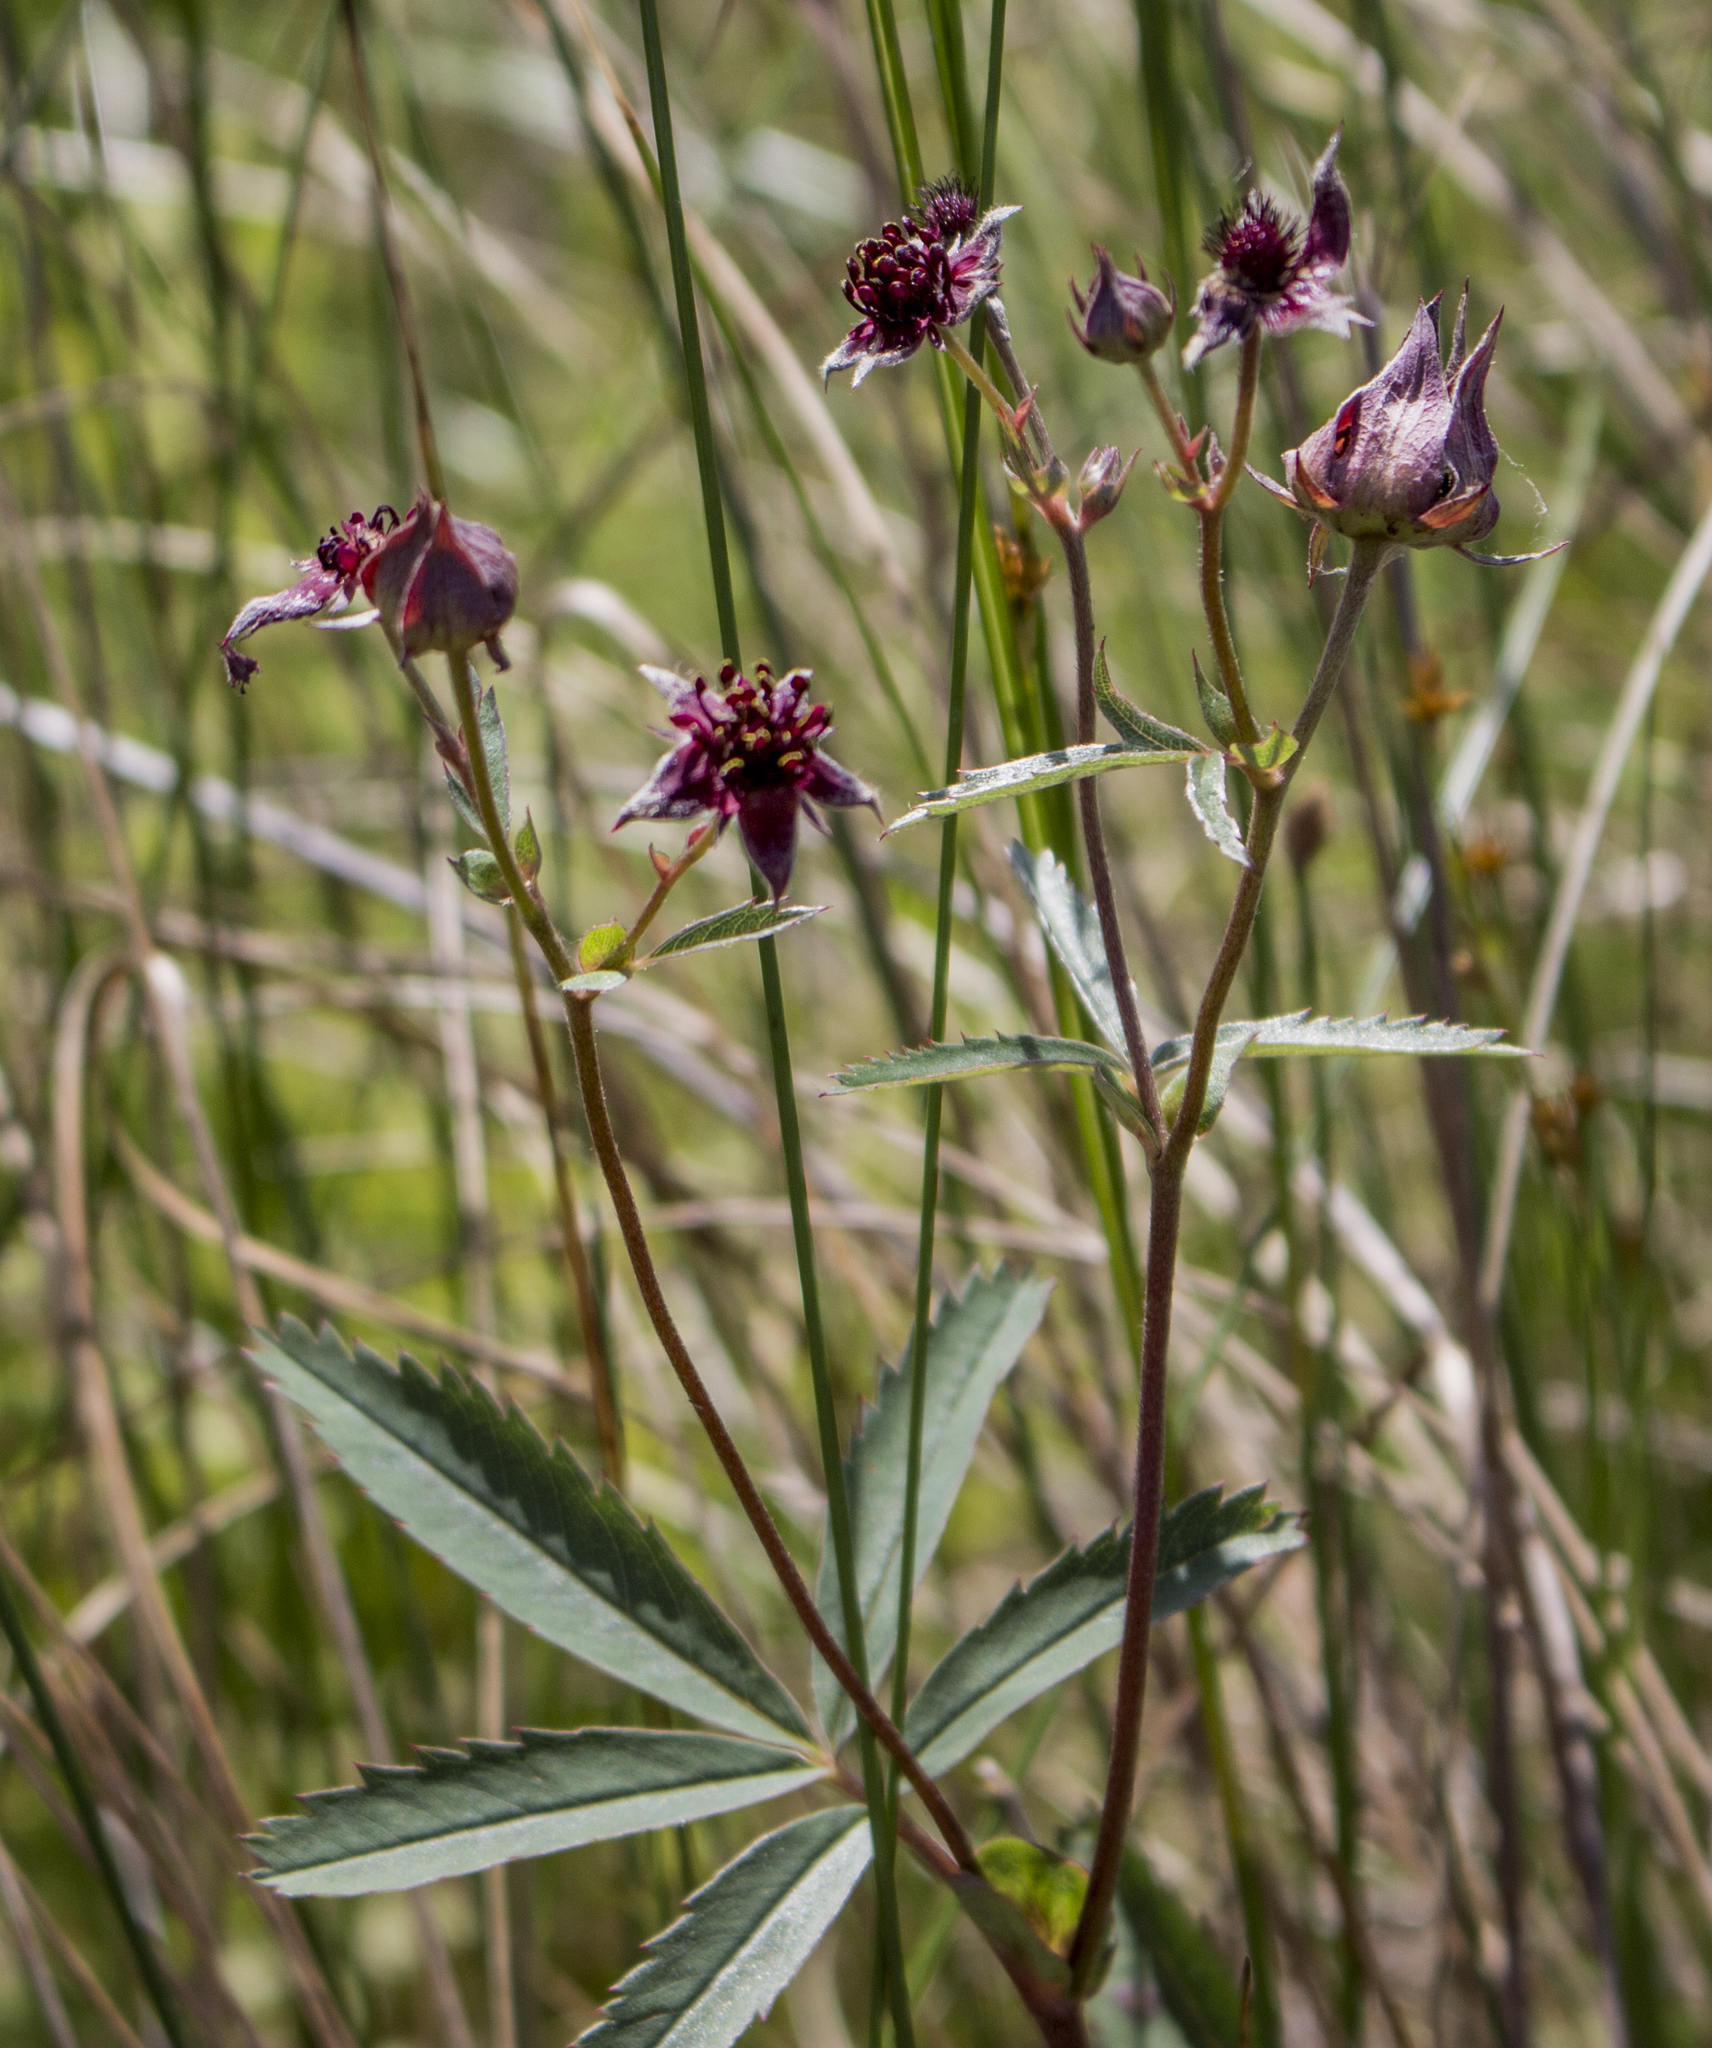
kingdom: Plantae
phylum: Tracheophyta
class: Magnoliopsida
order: Rosales
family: Rosaceae
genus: Comarum
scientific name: Comarum palustre
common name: Marsh cinquefoil
